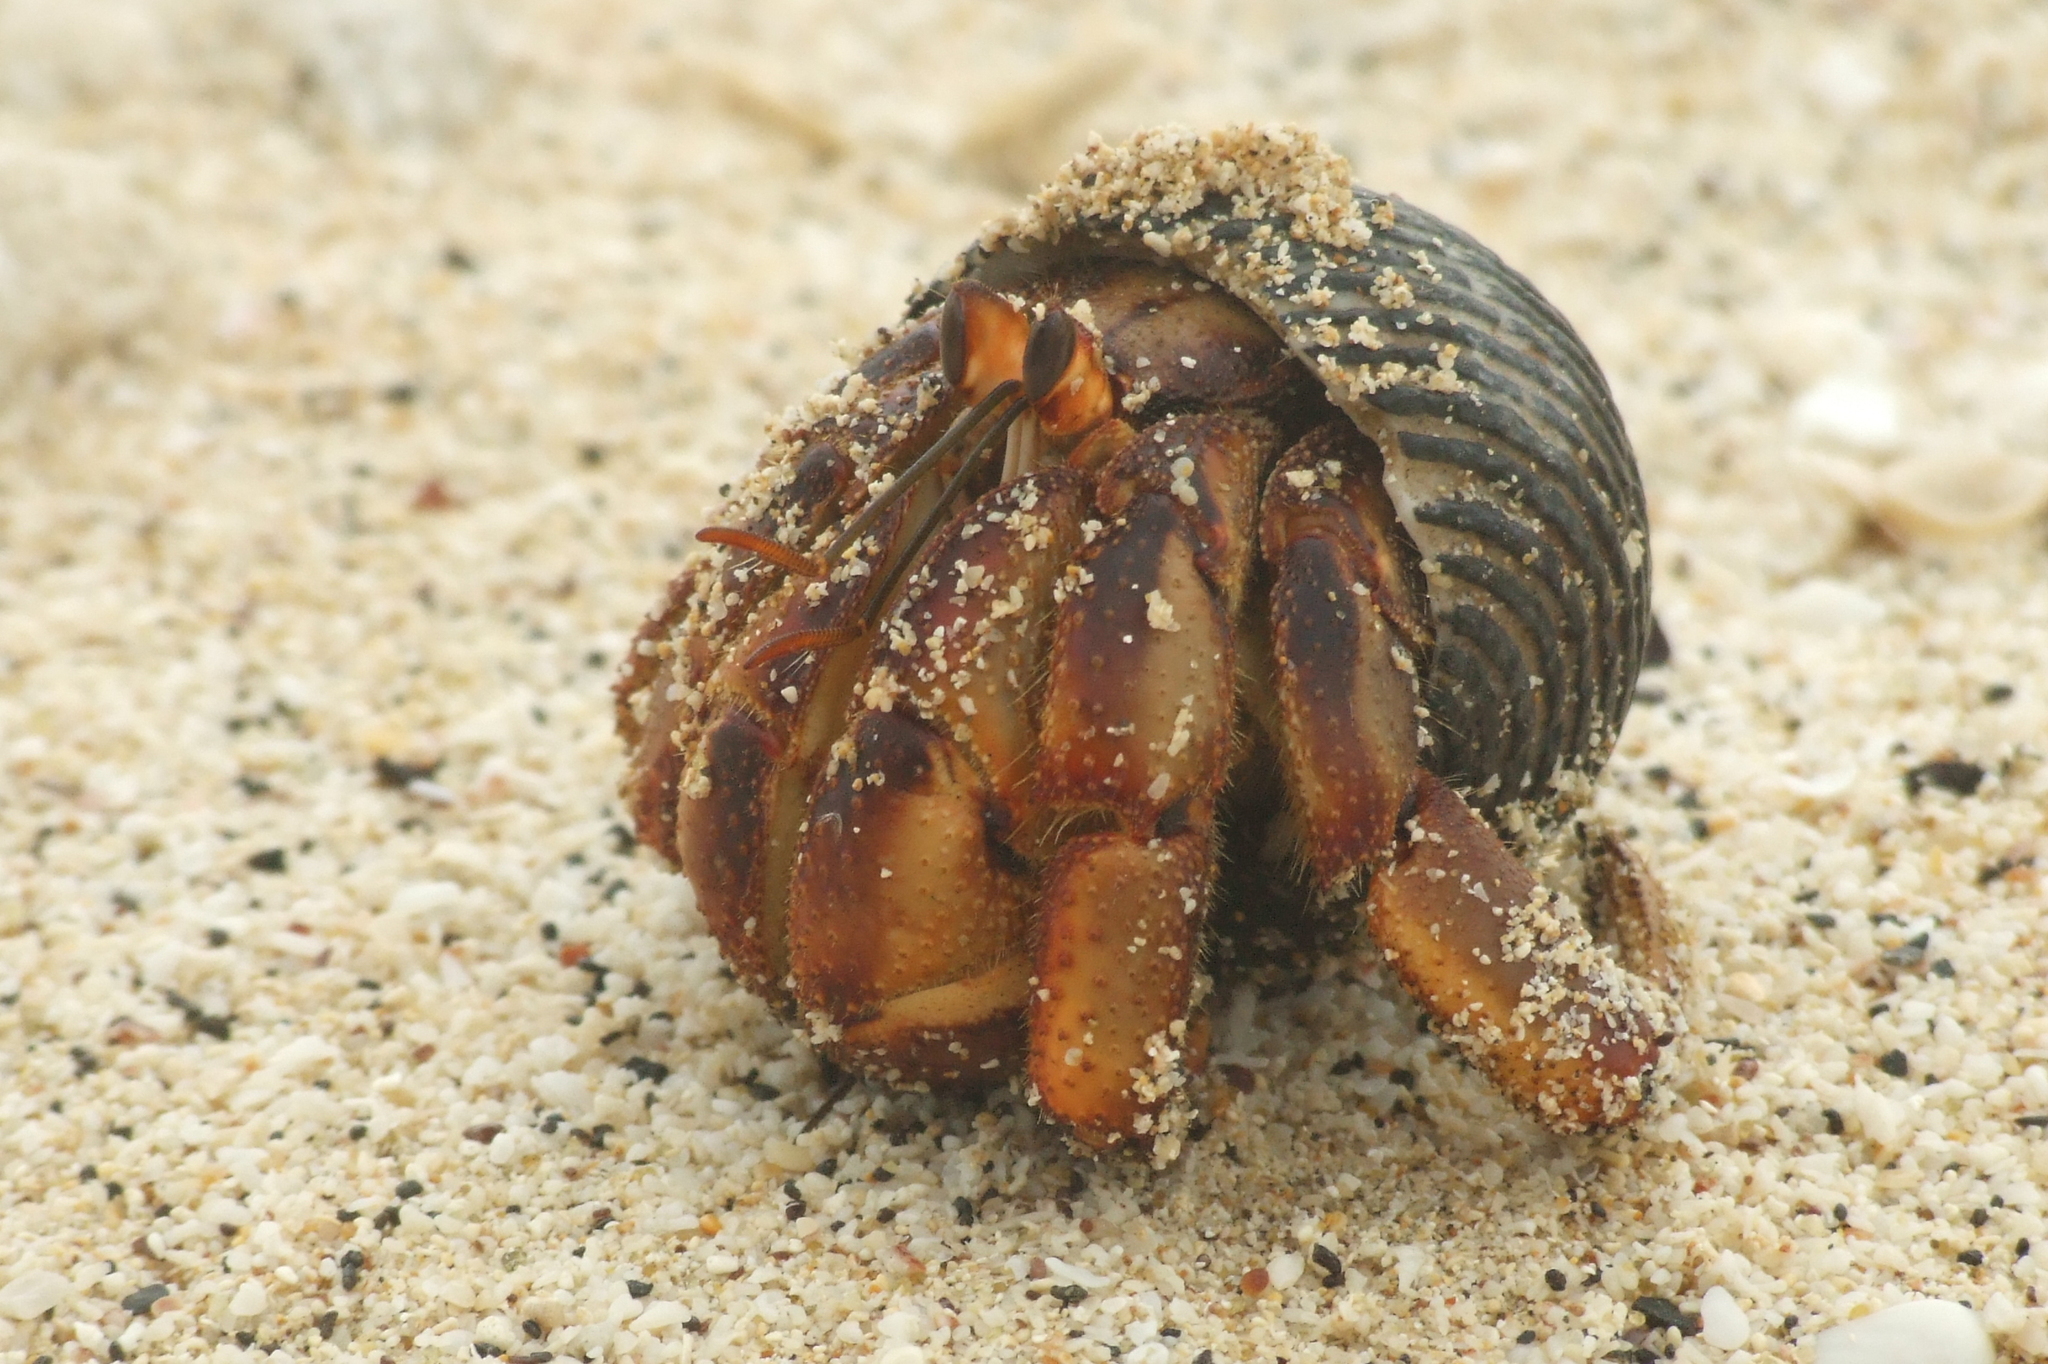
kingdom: Animalia
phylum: Arthropoda
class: Malacostraca
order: Decapoda
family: Coenobitidae
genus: Coenobita
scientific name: Coenobita compressus
